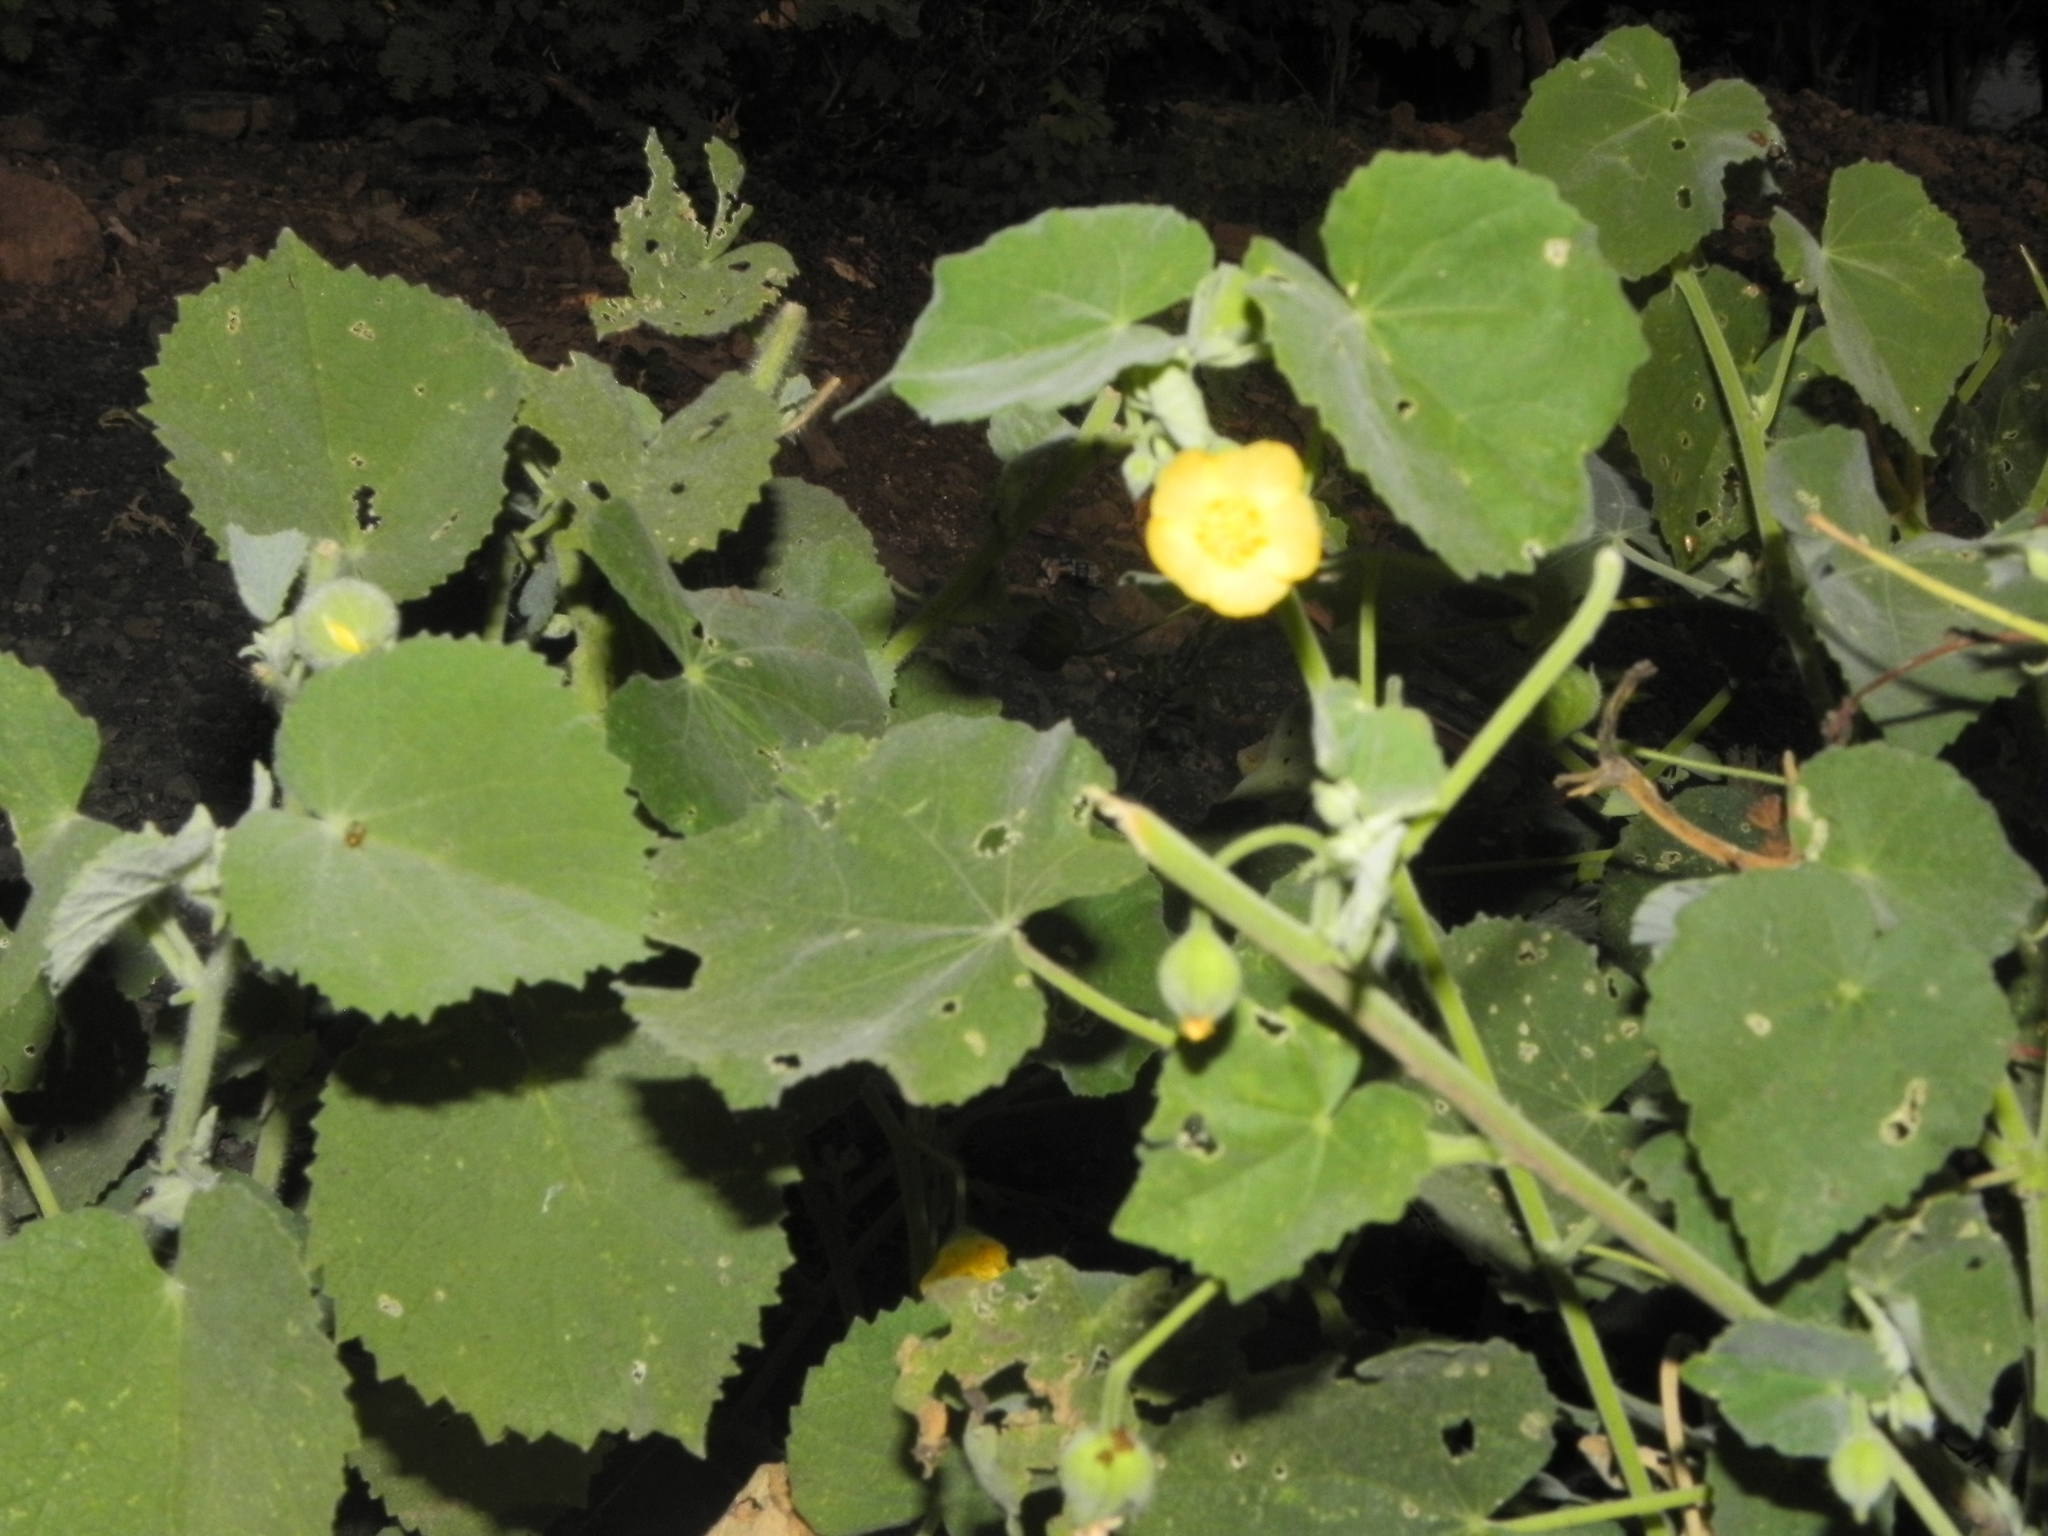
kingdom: Plantae
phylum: Tracheophyta
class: Magnoliopsida
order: Malvales
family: Malvaceae
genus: Abutilon
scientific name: Abutilon pannosum
